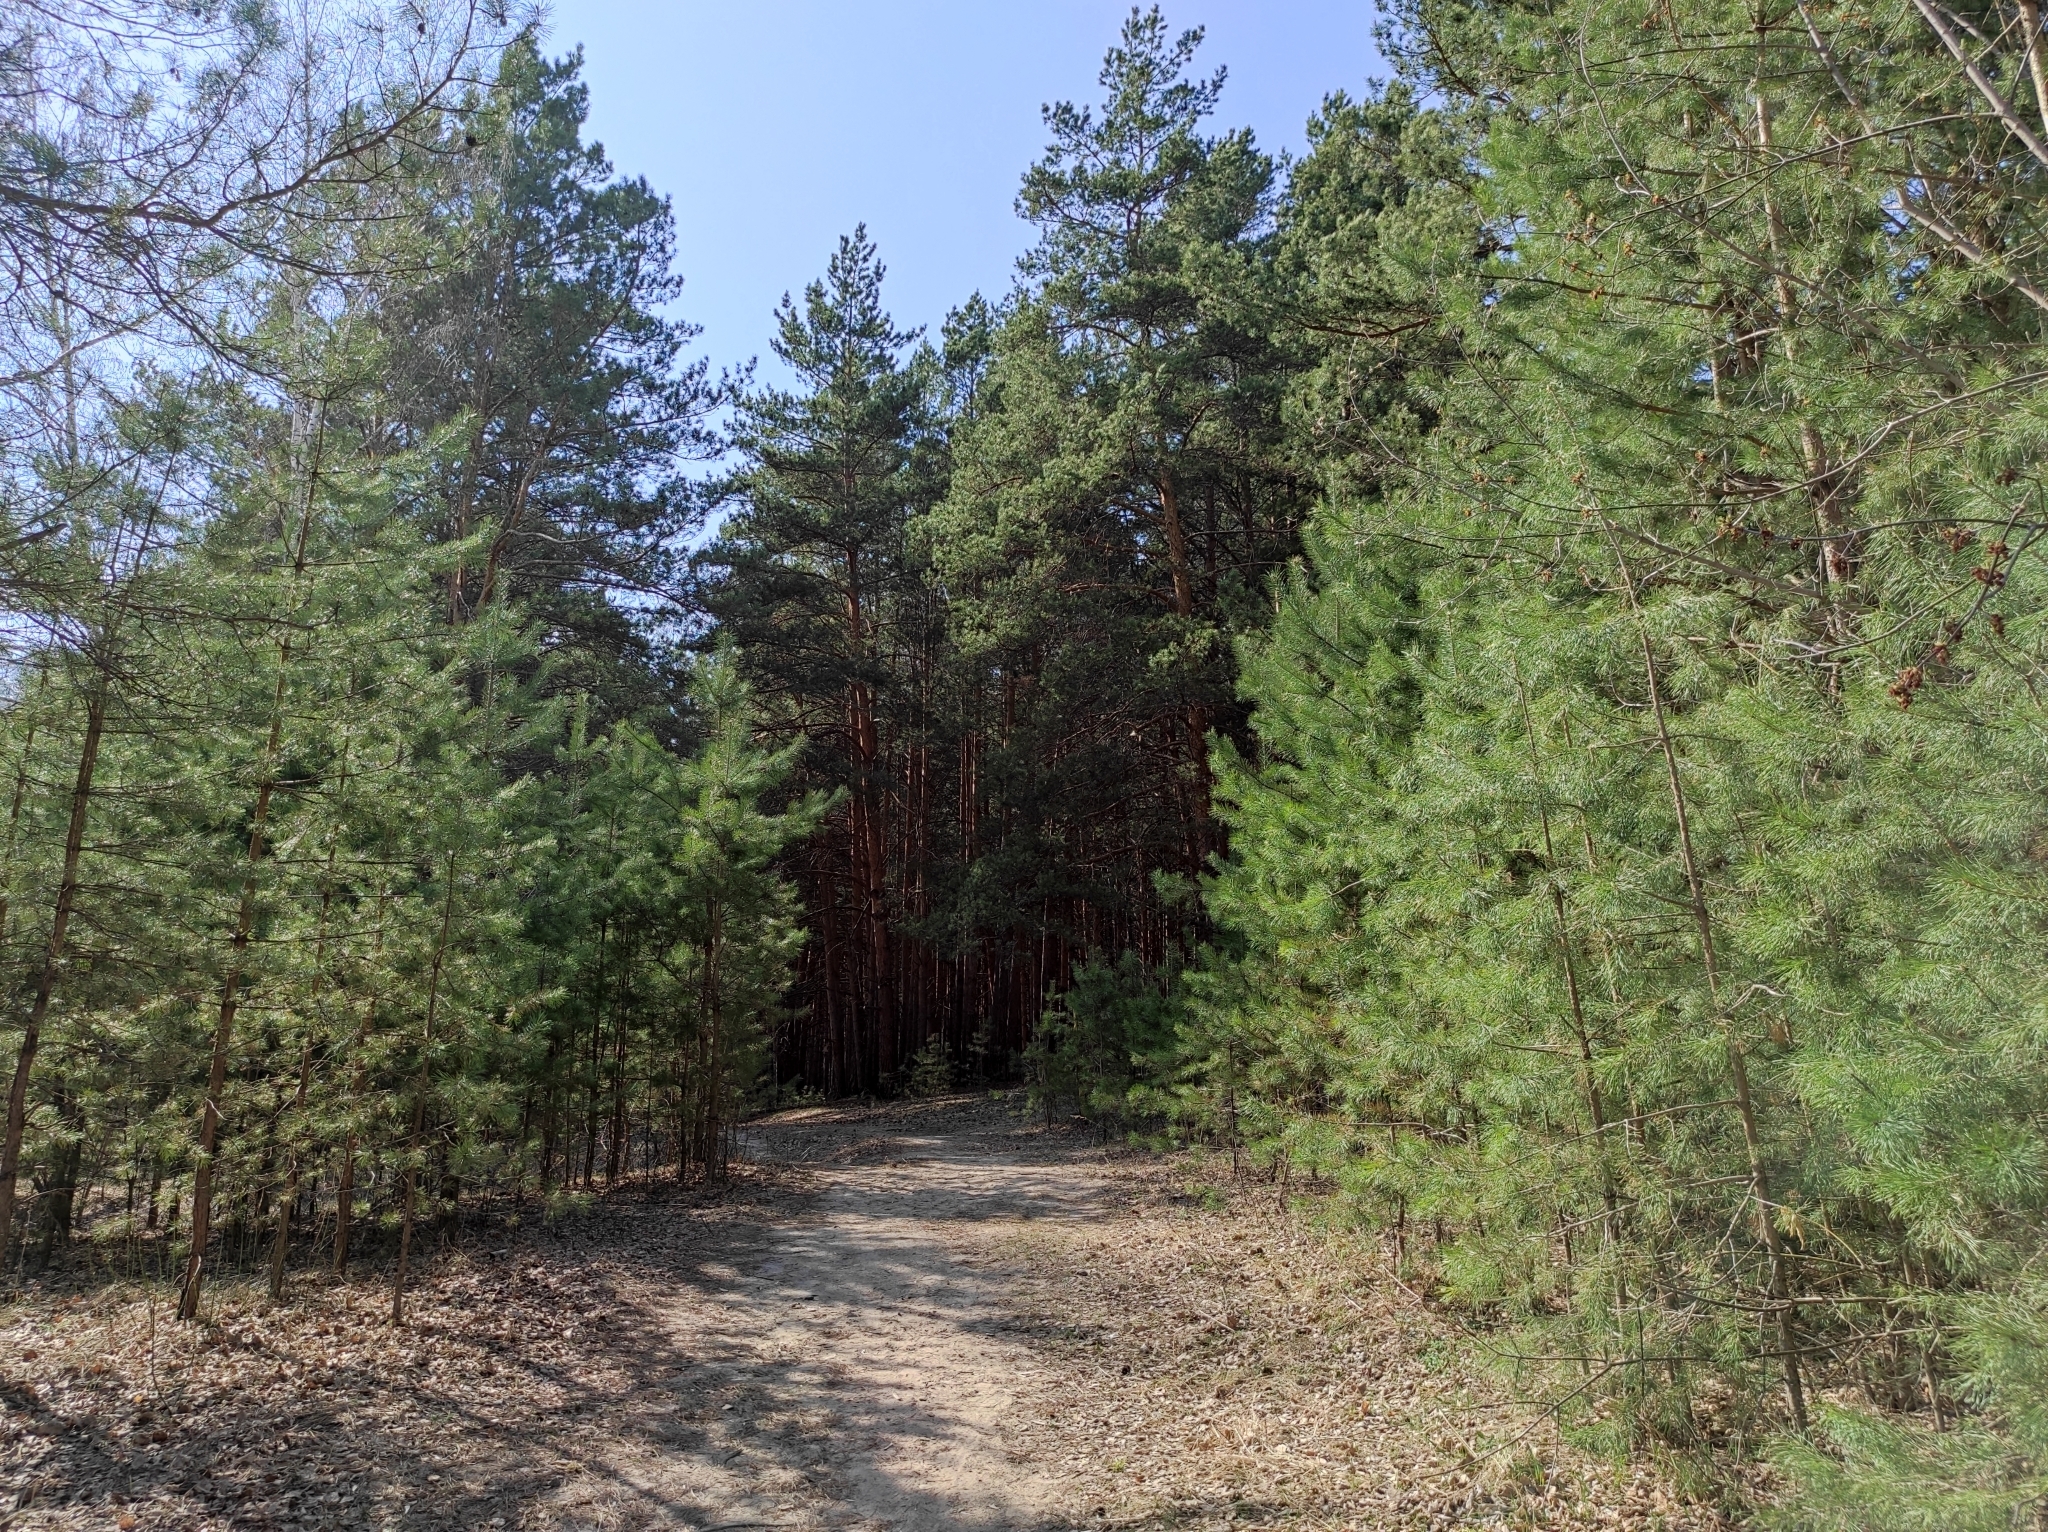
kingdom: Animalia
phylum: Arthropoda
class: Insecta
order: Lepidoptera
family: Lycaenidae
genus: Callophrys
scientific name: Callophrys rubi
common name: Green hairstreak
